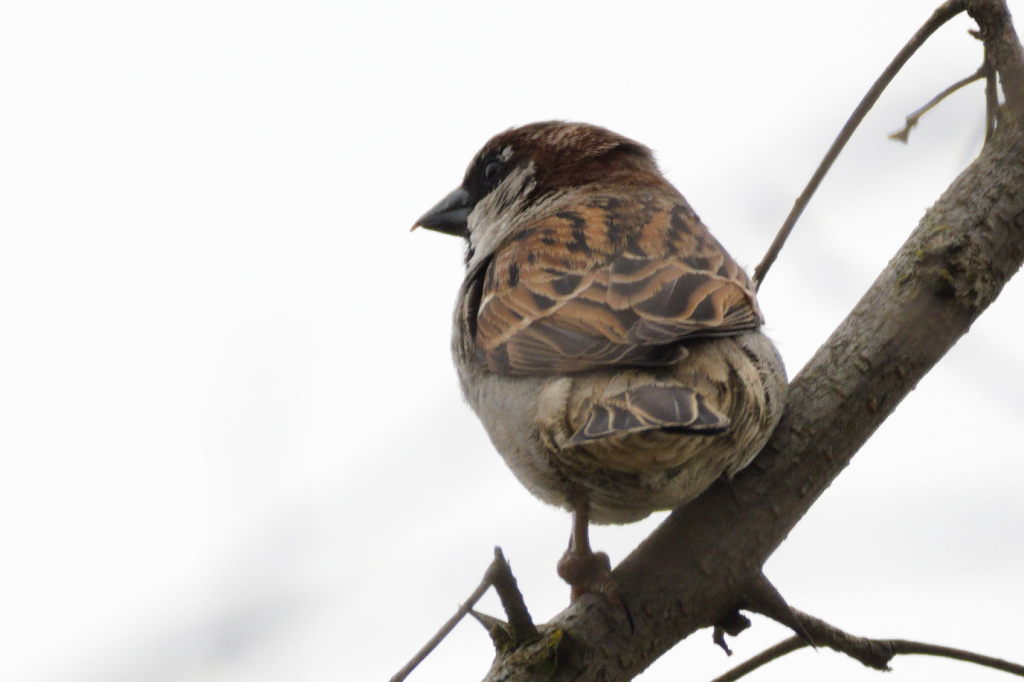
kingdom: Animalia
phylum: Chordata
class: Aves
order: Passeriformes
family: Passeridae
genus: Passer
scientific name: Passer domesticus
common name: House sparrow
